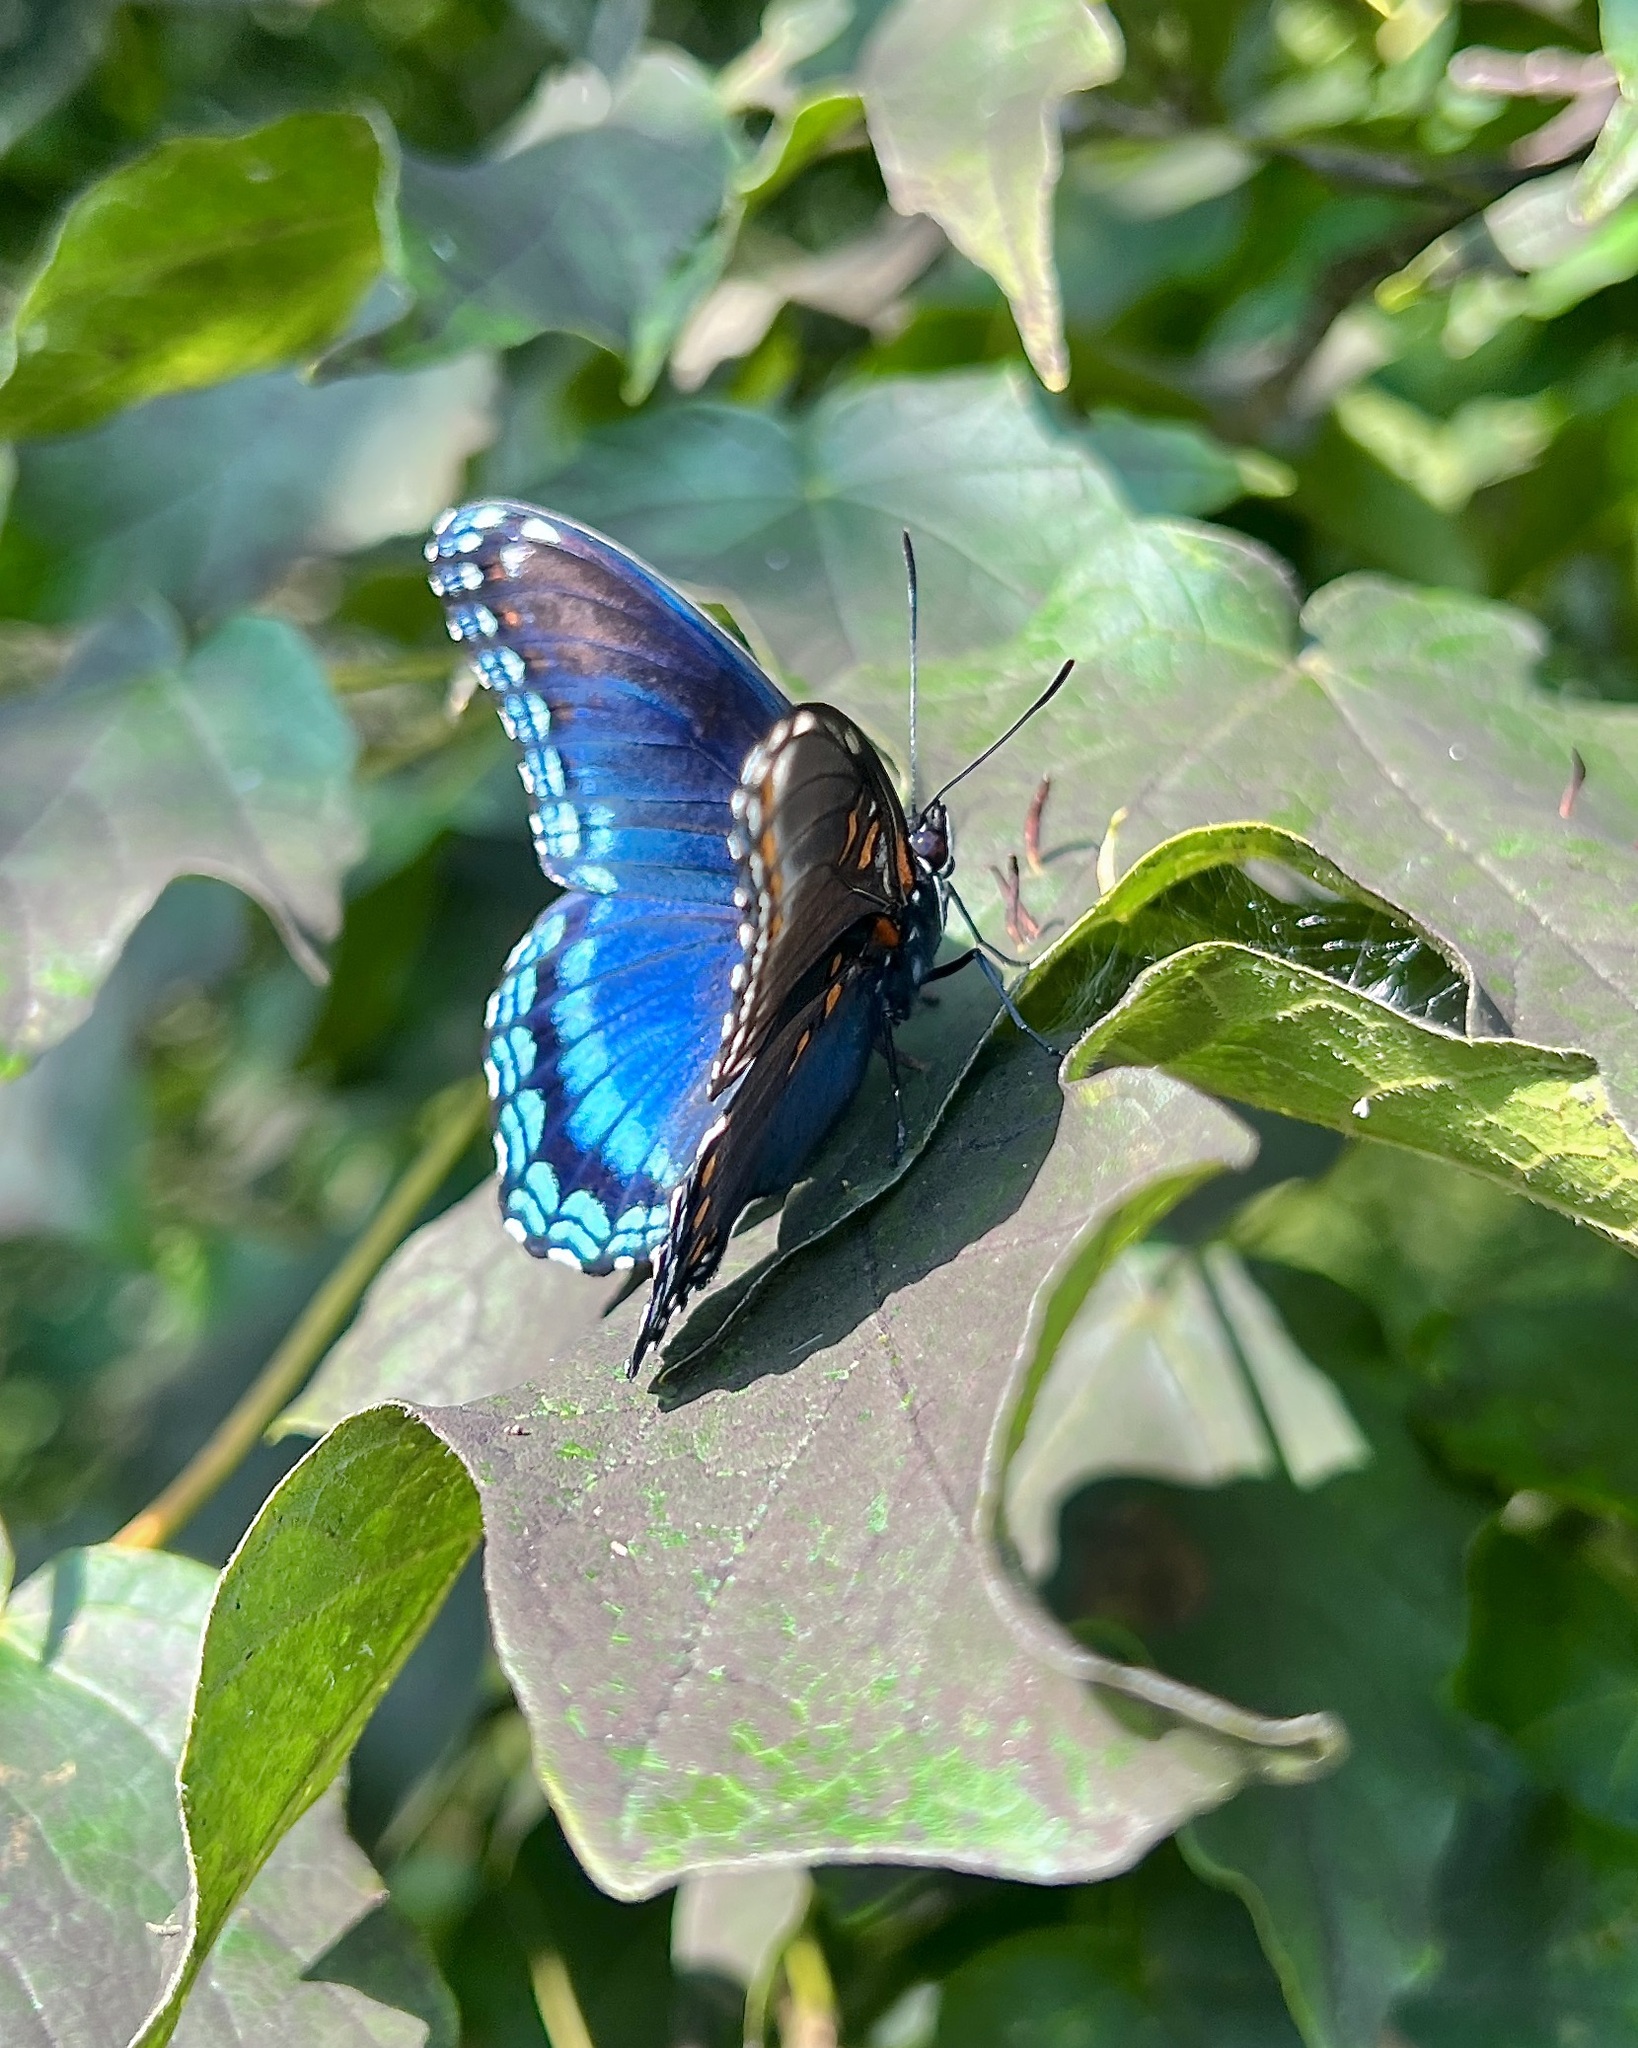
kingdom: Animalia
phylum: Arthropoda
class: Insecta
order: Lepidoptera
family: Nymphalidae
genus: Limenitis
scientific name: Limenitis arthemis
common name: Red-spotted admiral
